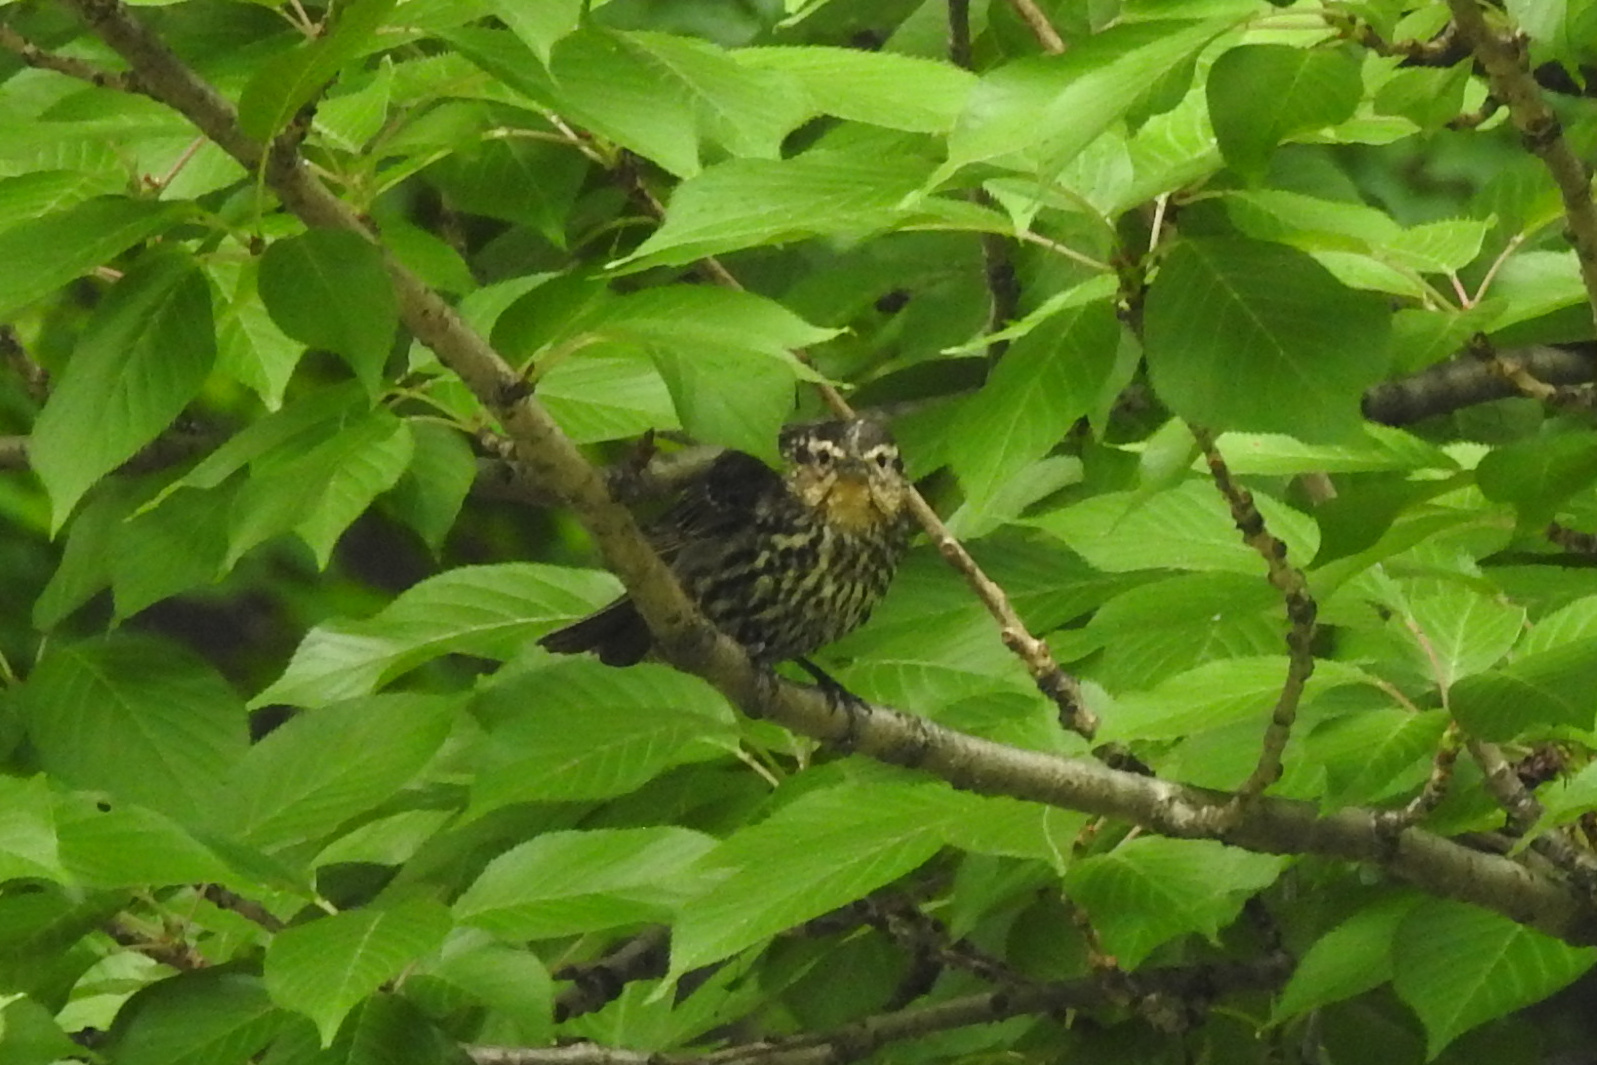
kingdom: Animalia
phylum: Chordata
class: Aves
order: Passeriformes
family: Icteridae
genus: Agelaius
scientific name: Agelaius phoeniceus
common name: Red-winged blackbird
